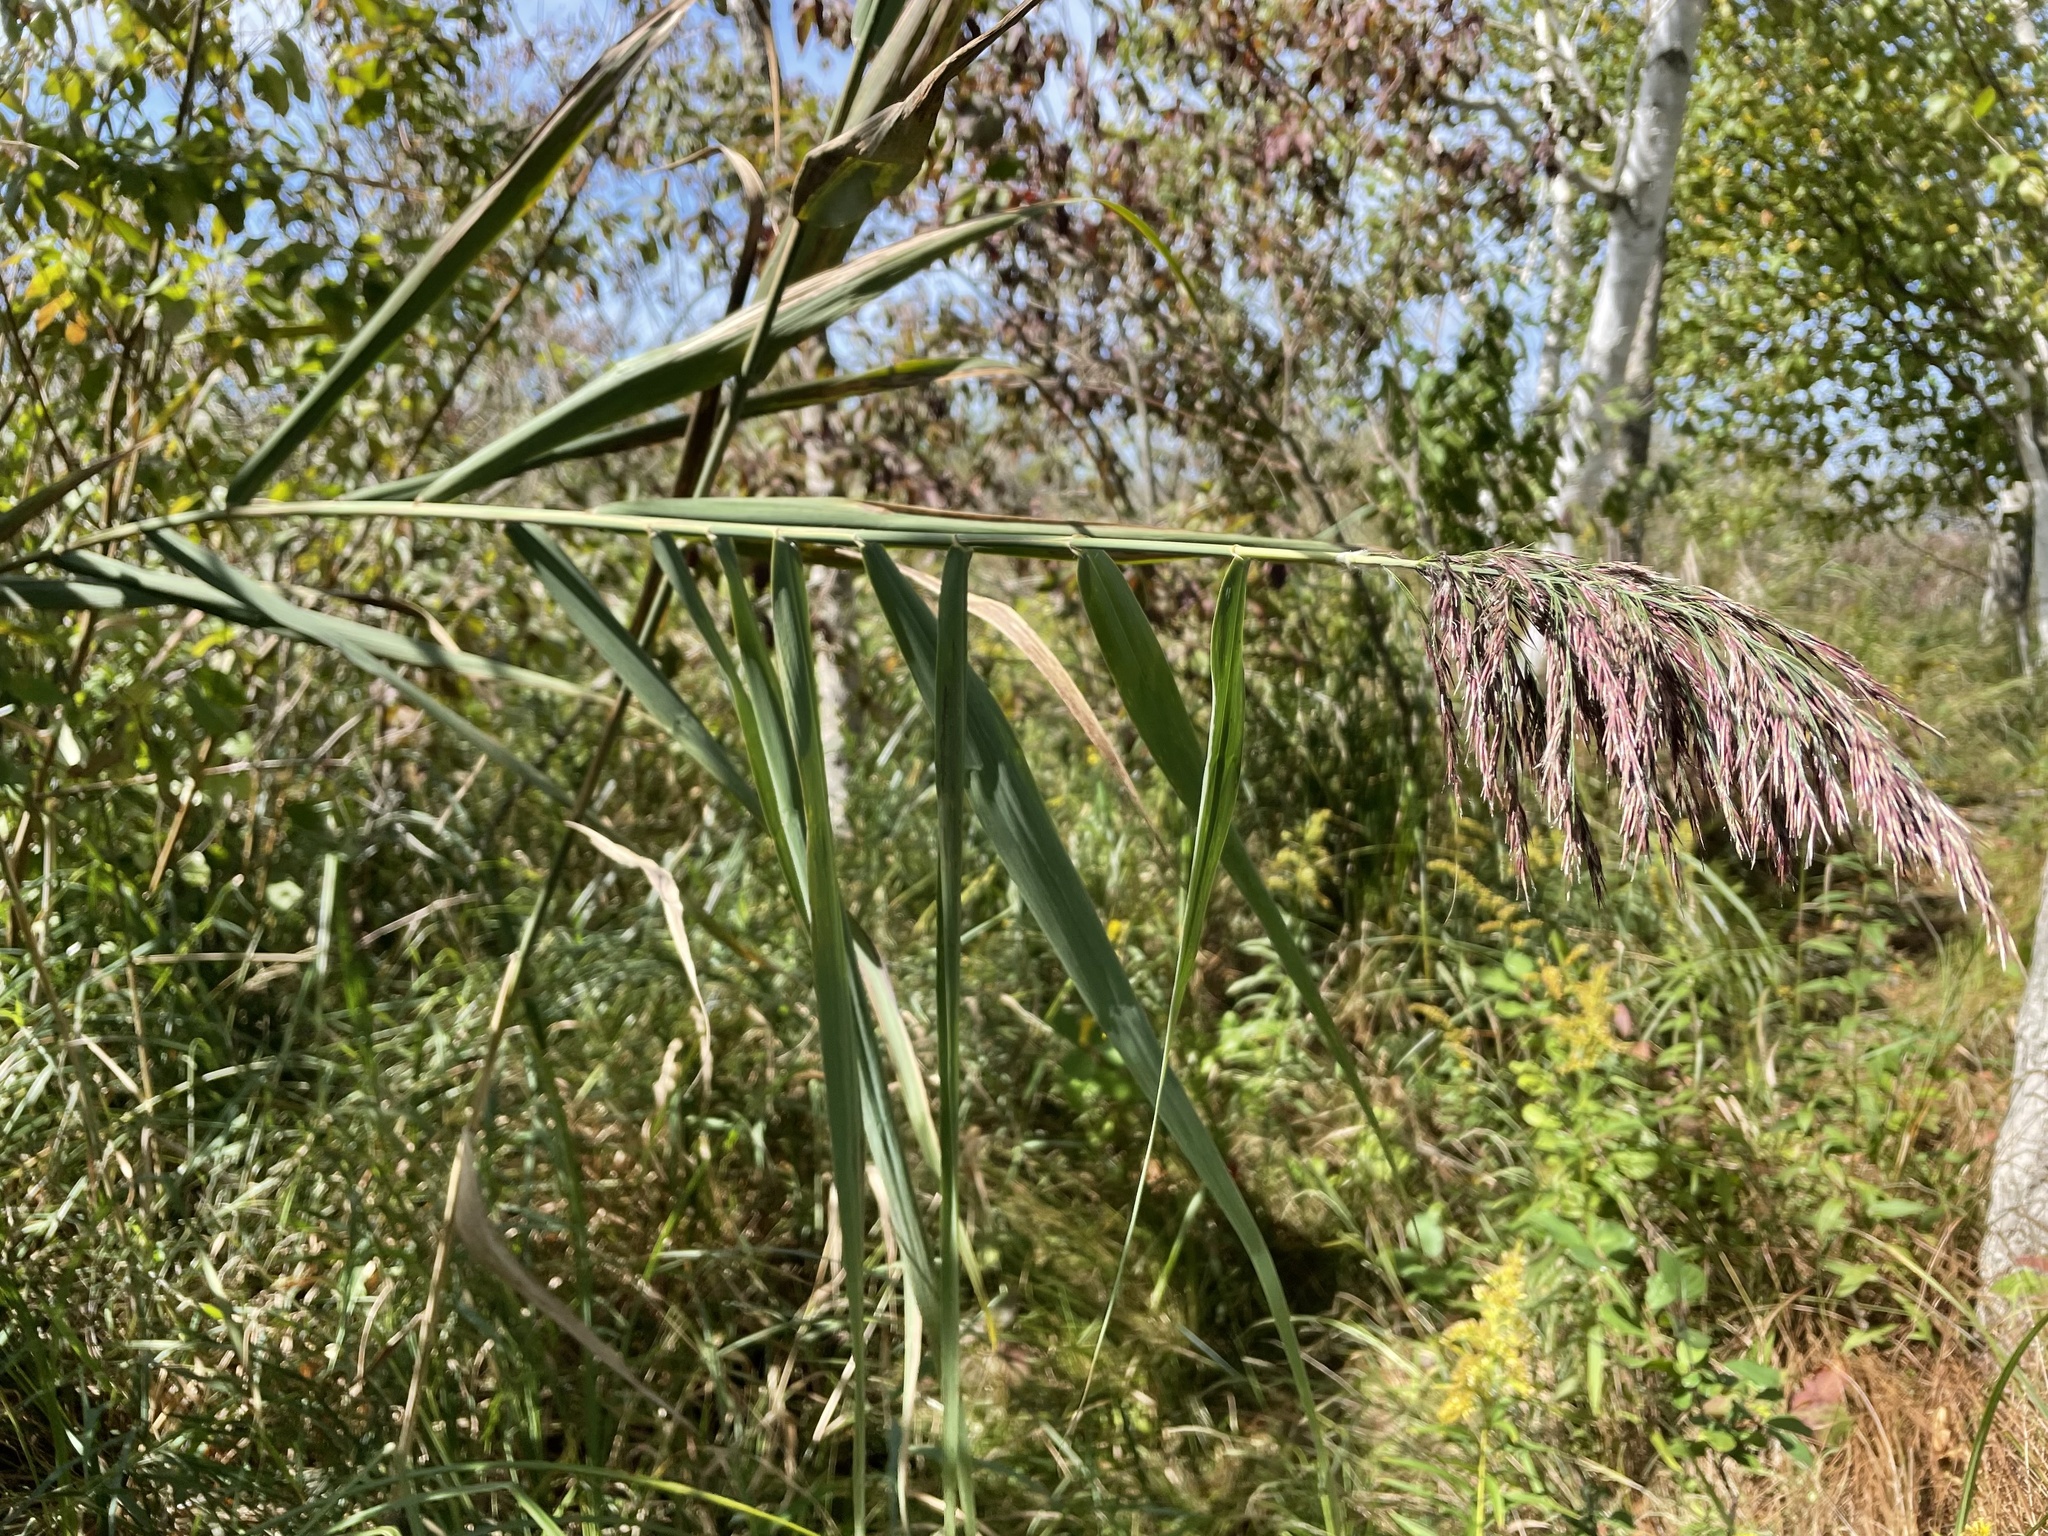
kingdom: Plantae
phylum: Tracheophyta
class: Liliopsida
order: Poales
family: Poaceae
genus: Phragmites
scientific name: Phragmites australis
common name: Common reed
